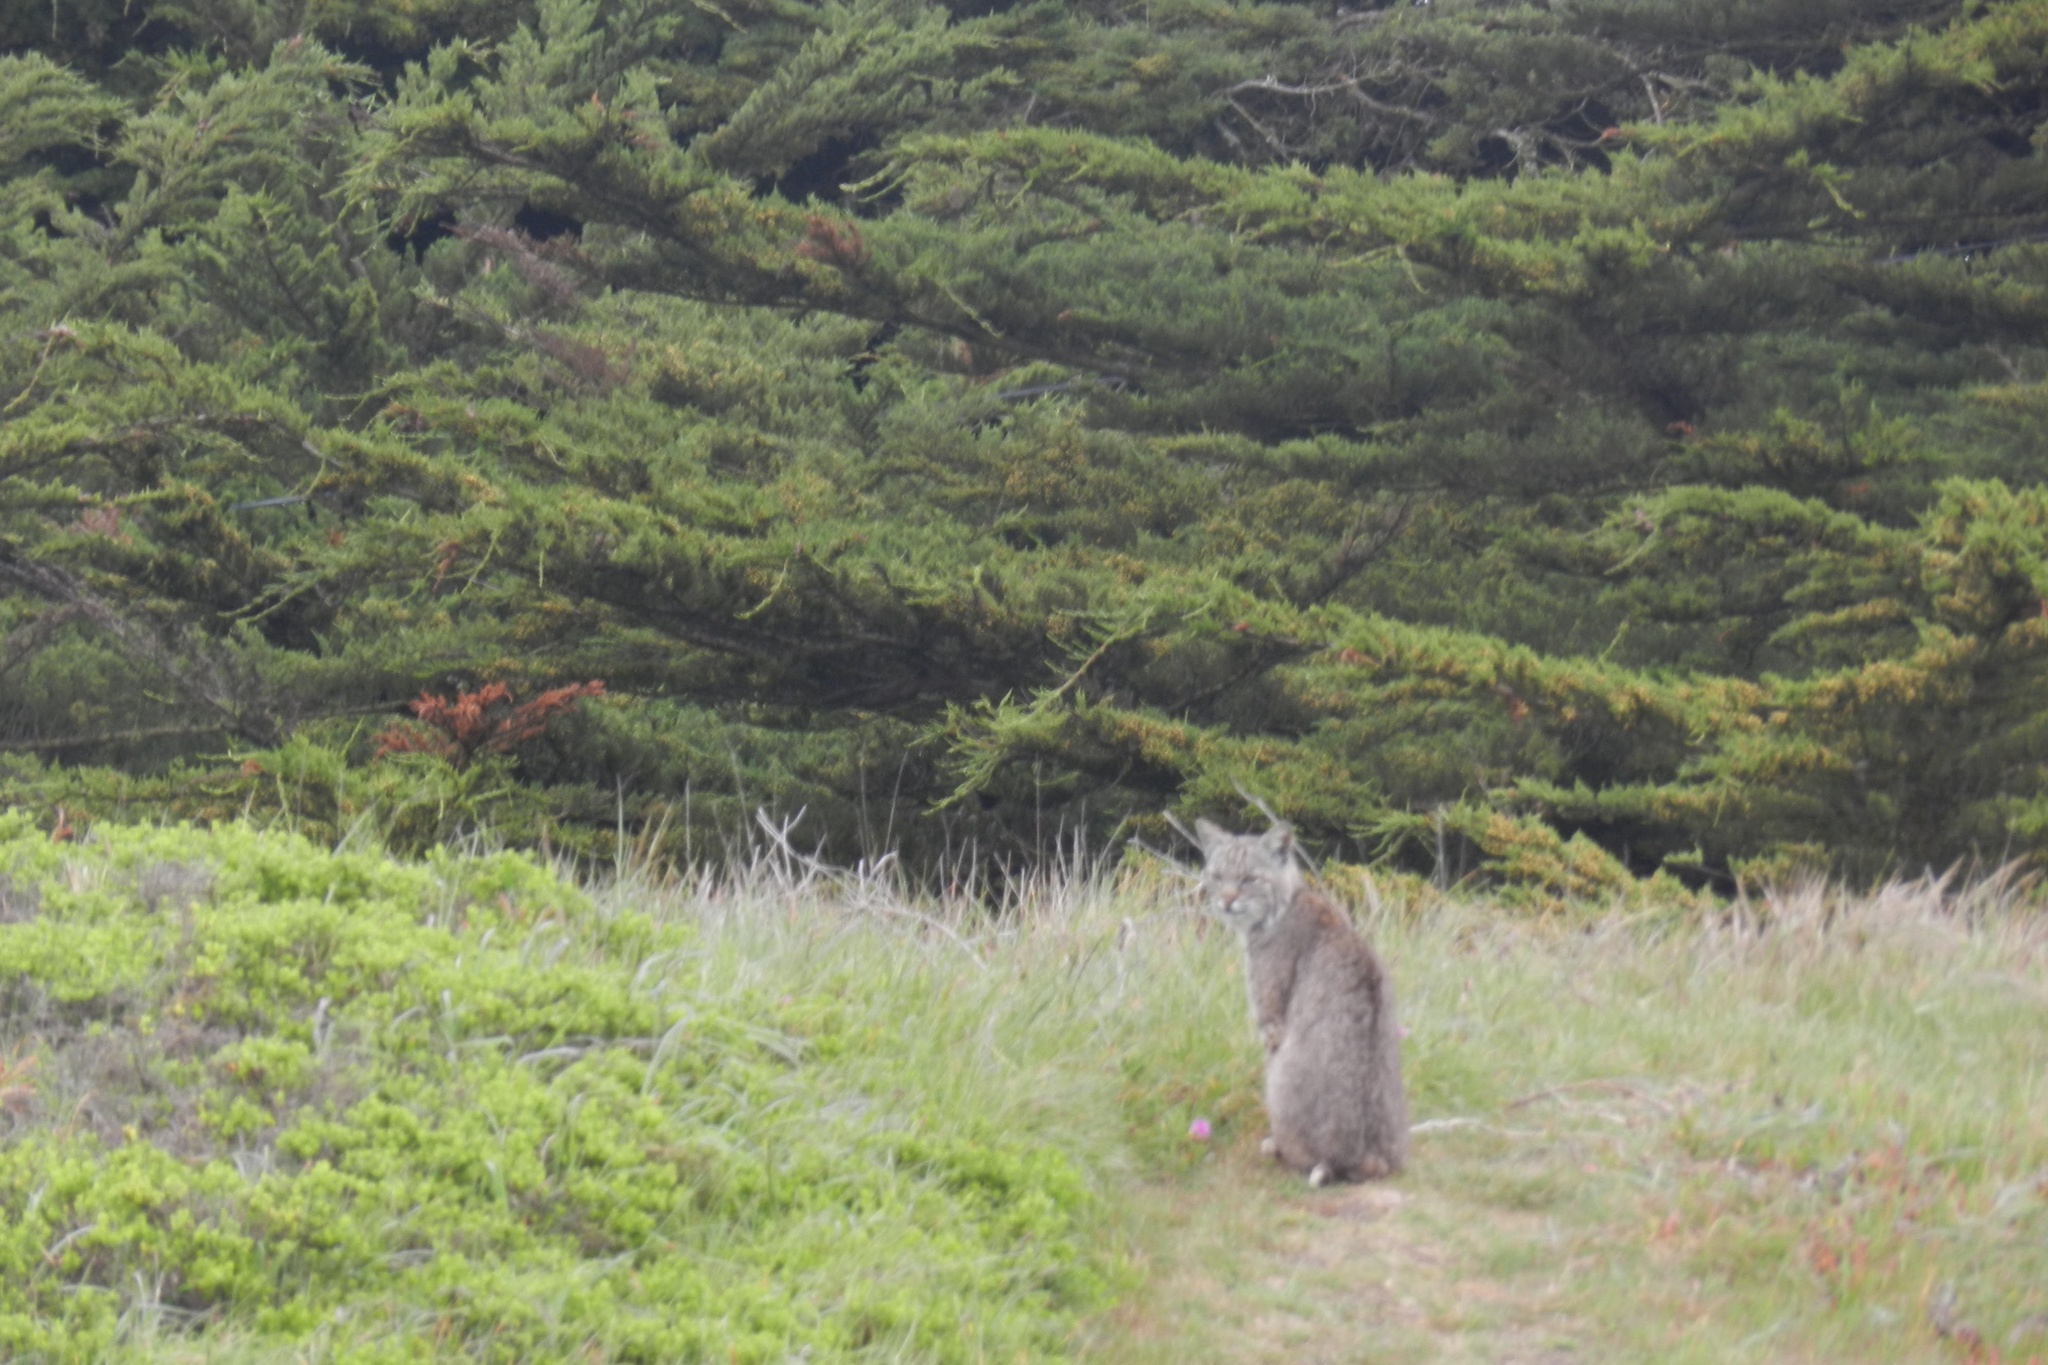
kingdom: Animalia
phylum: Chordata
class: Mammalia
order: Carnivora
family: Felidae
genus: Lynx
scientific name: Lynx rufus
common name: Bobcat
